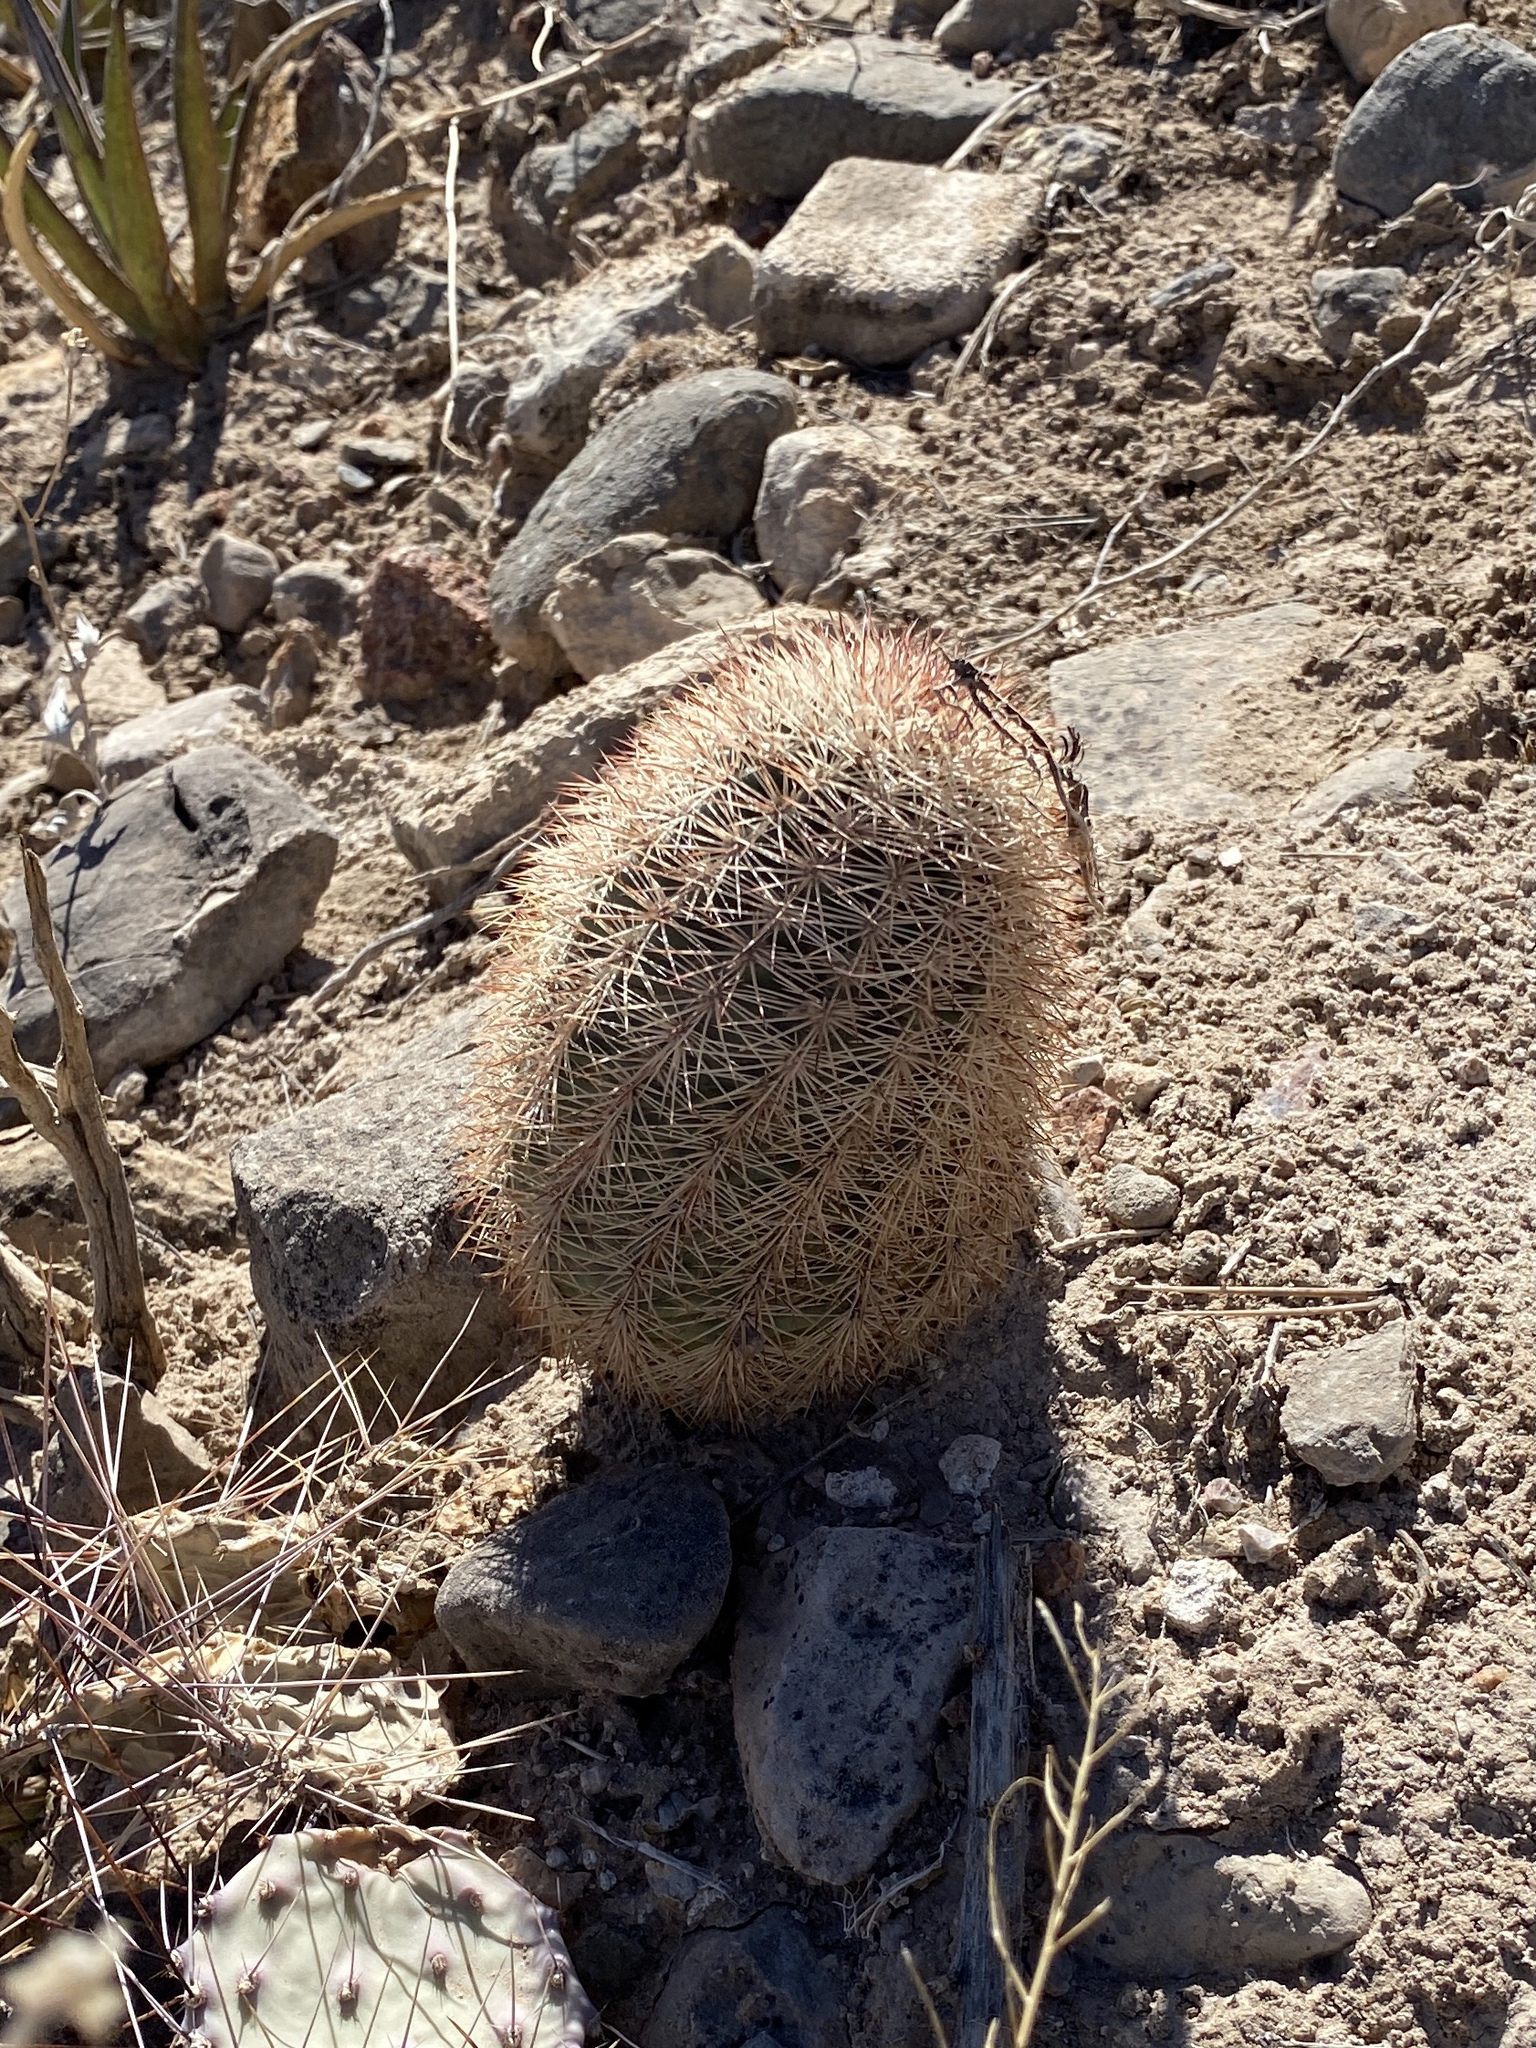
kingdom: Plantae
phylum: Tracheophyta
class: Magnoliopsida
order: Caryophyllales
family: Cactaceae
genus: Echinocereus
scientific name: Echinocereus dasyacanthus
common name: Spiny hedgehog cactus
